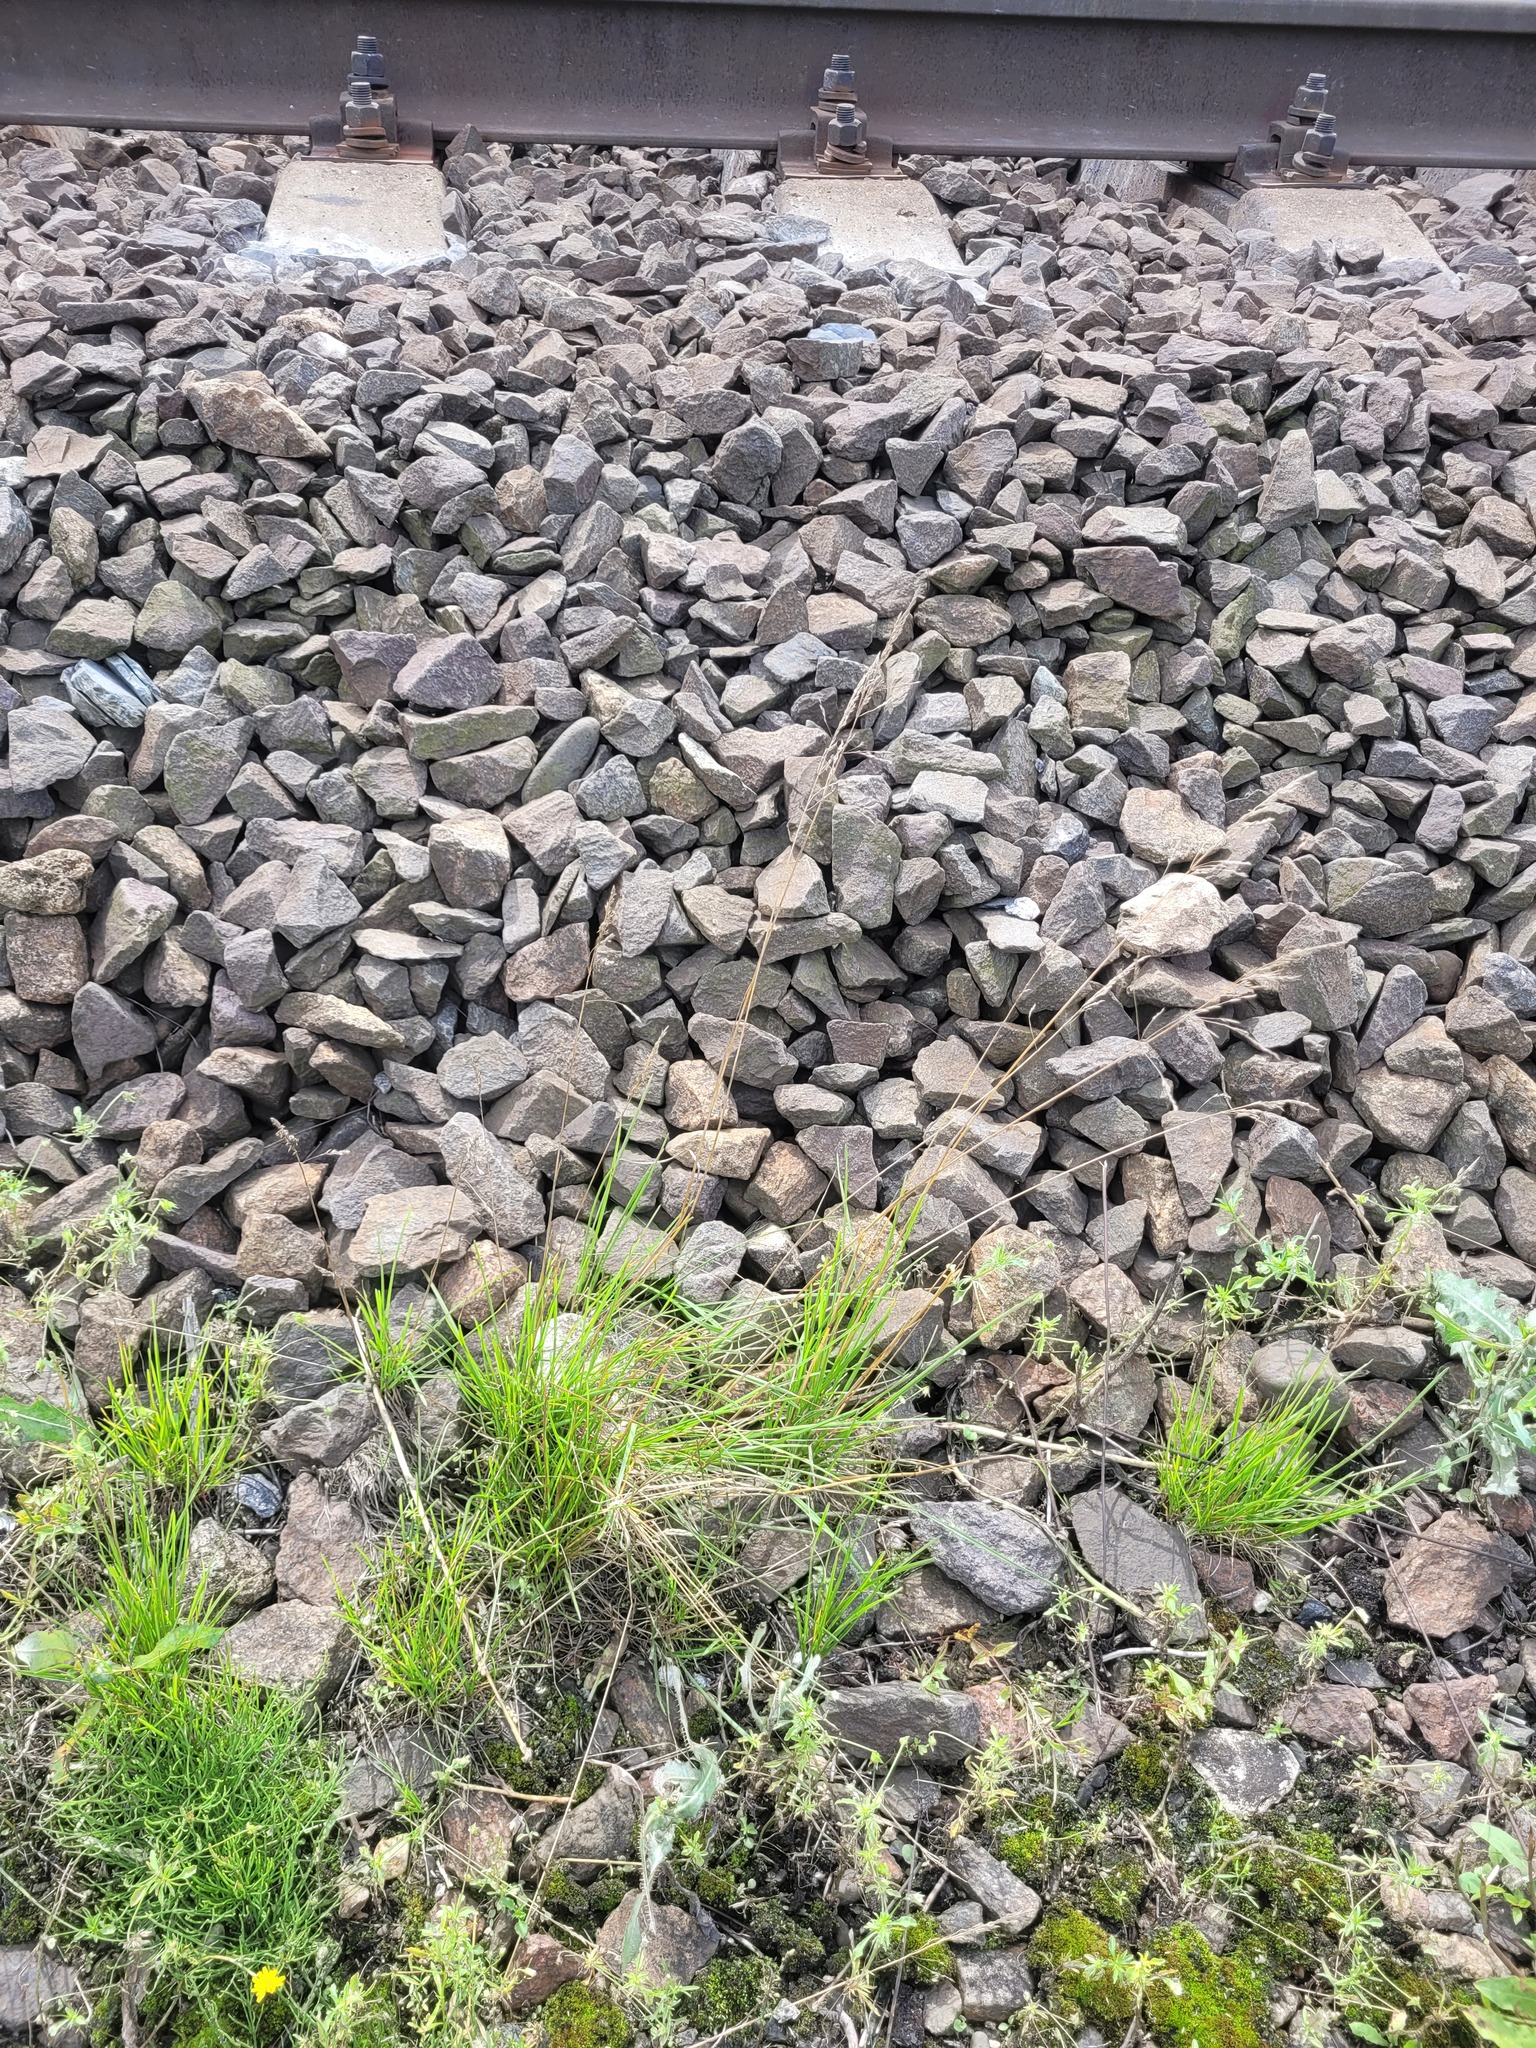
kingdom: Plantae
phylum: Tracheophyta
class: Liliopsida
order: Poales
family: Poaceae
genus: Festuca
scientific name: Festuca rubra
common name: Red fescue
